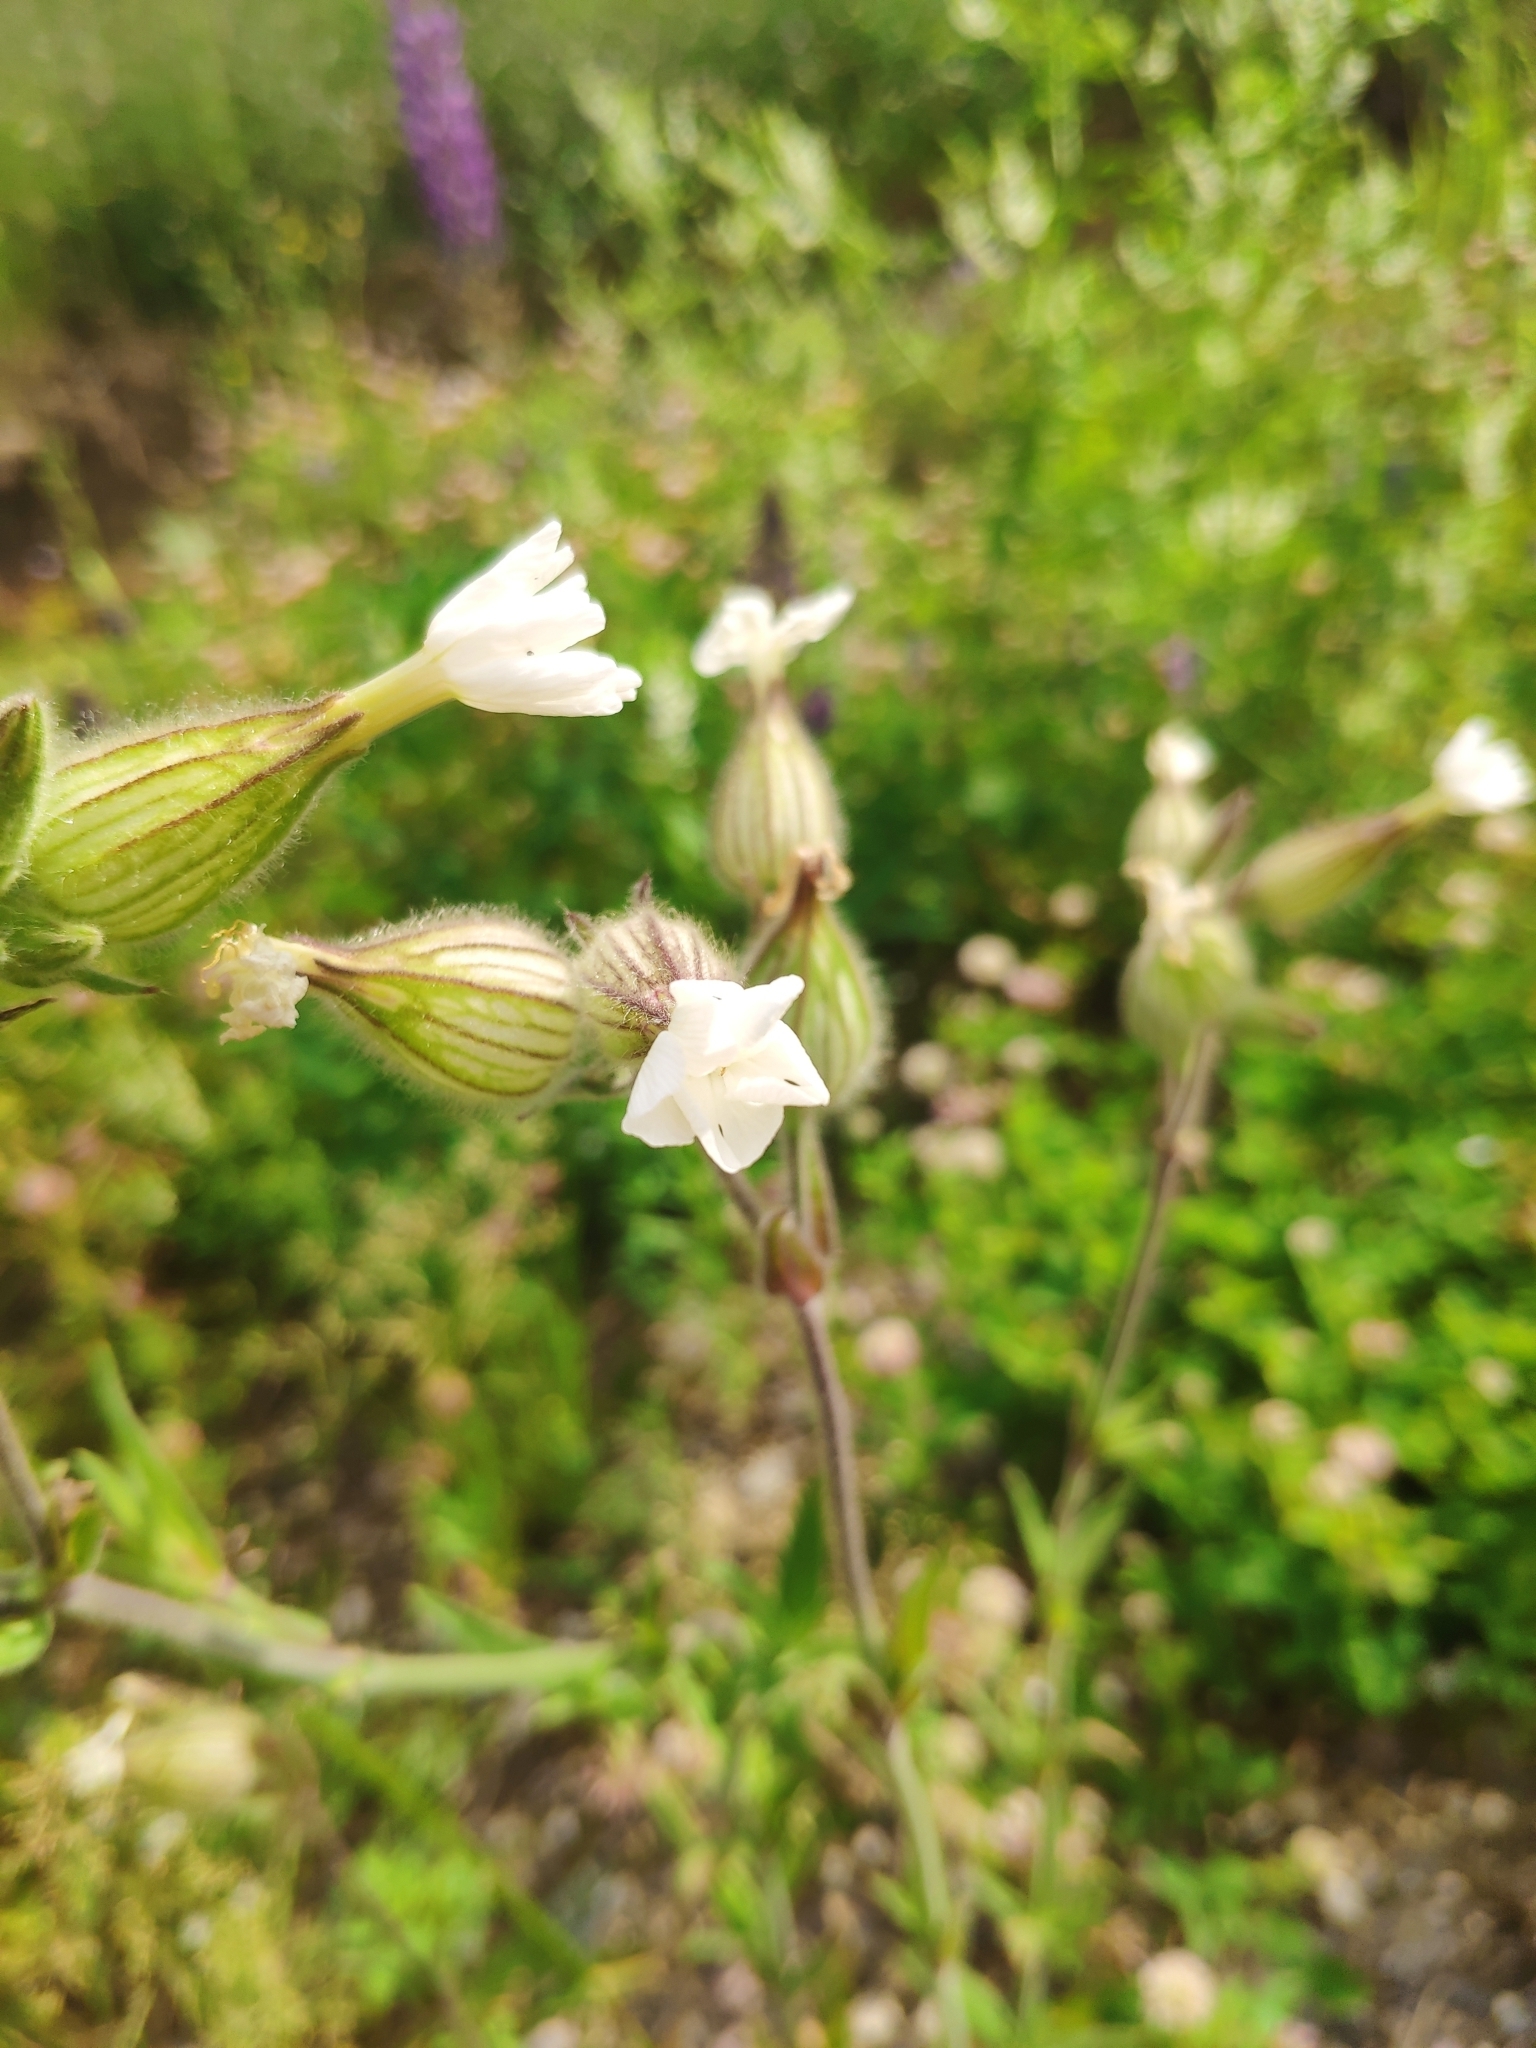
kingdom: Plantae
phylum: Tracheophyta
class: Magnoliopsida
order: Caryophyllales
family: Caryophyllaceae
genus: Silene
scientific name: Silene latifolia
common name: White campion
